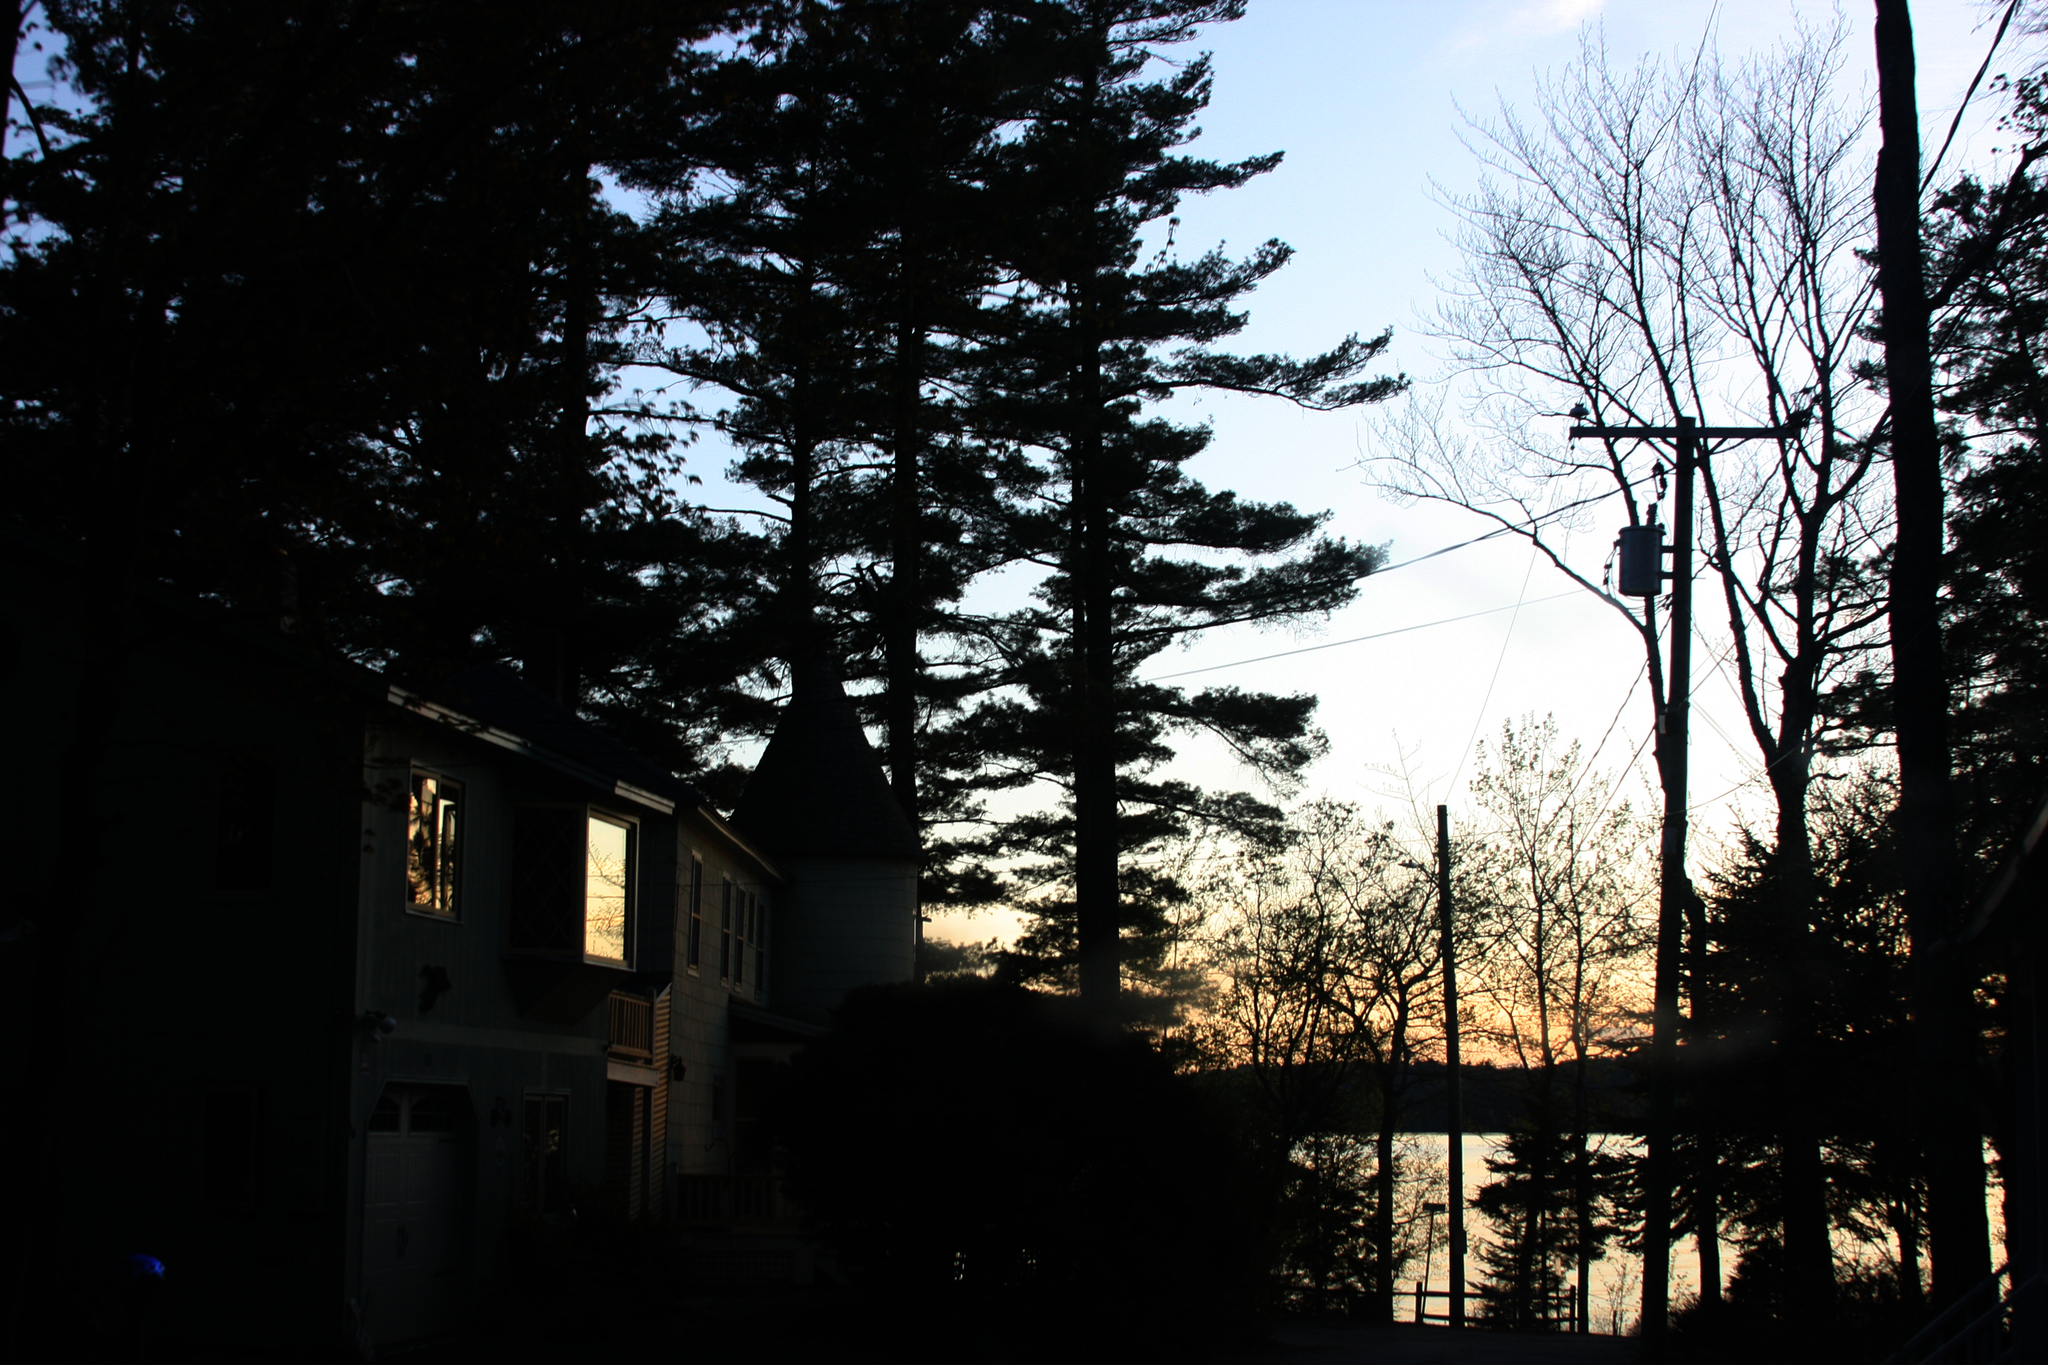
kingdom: Plantae
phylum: Tracheophyta
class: Pinopsida
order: Pinales
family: Pinaceae
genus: Pinus
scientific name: Pinus strobus
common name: Weymouth pine
